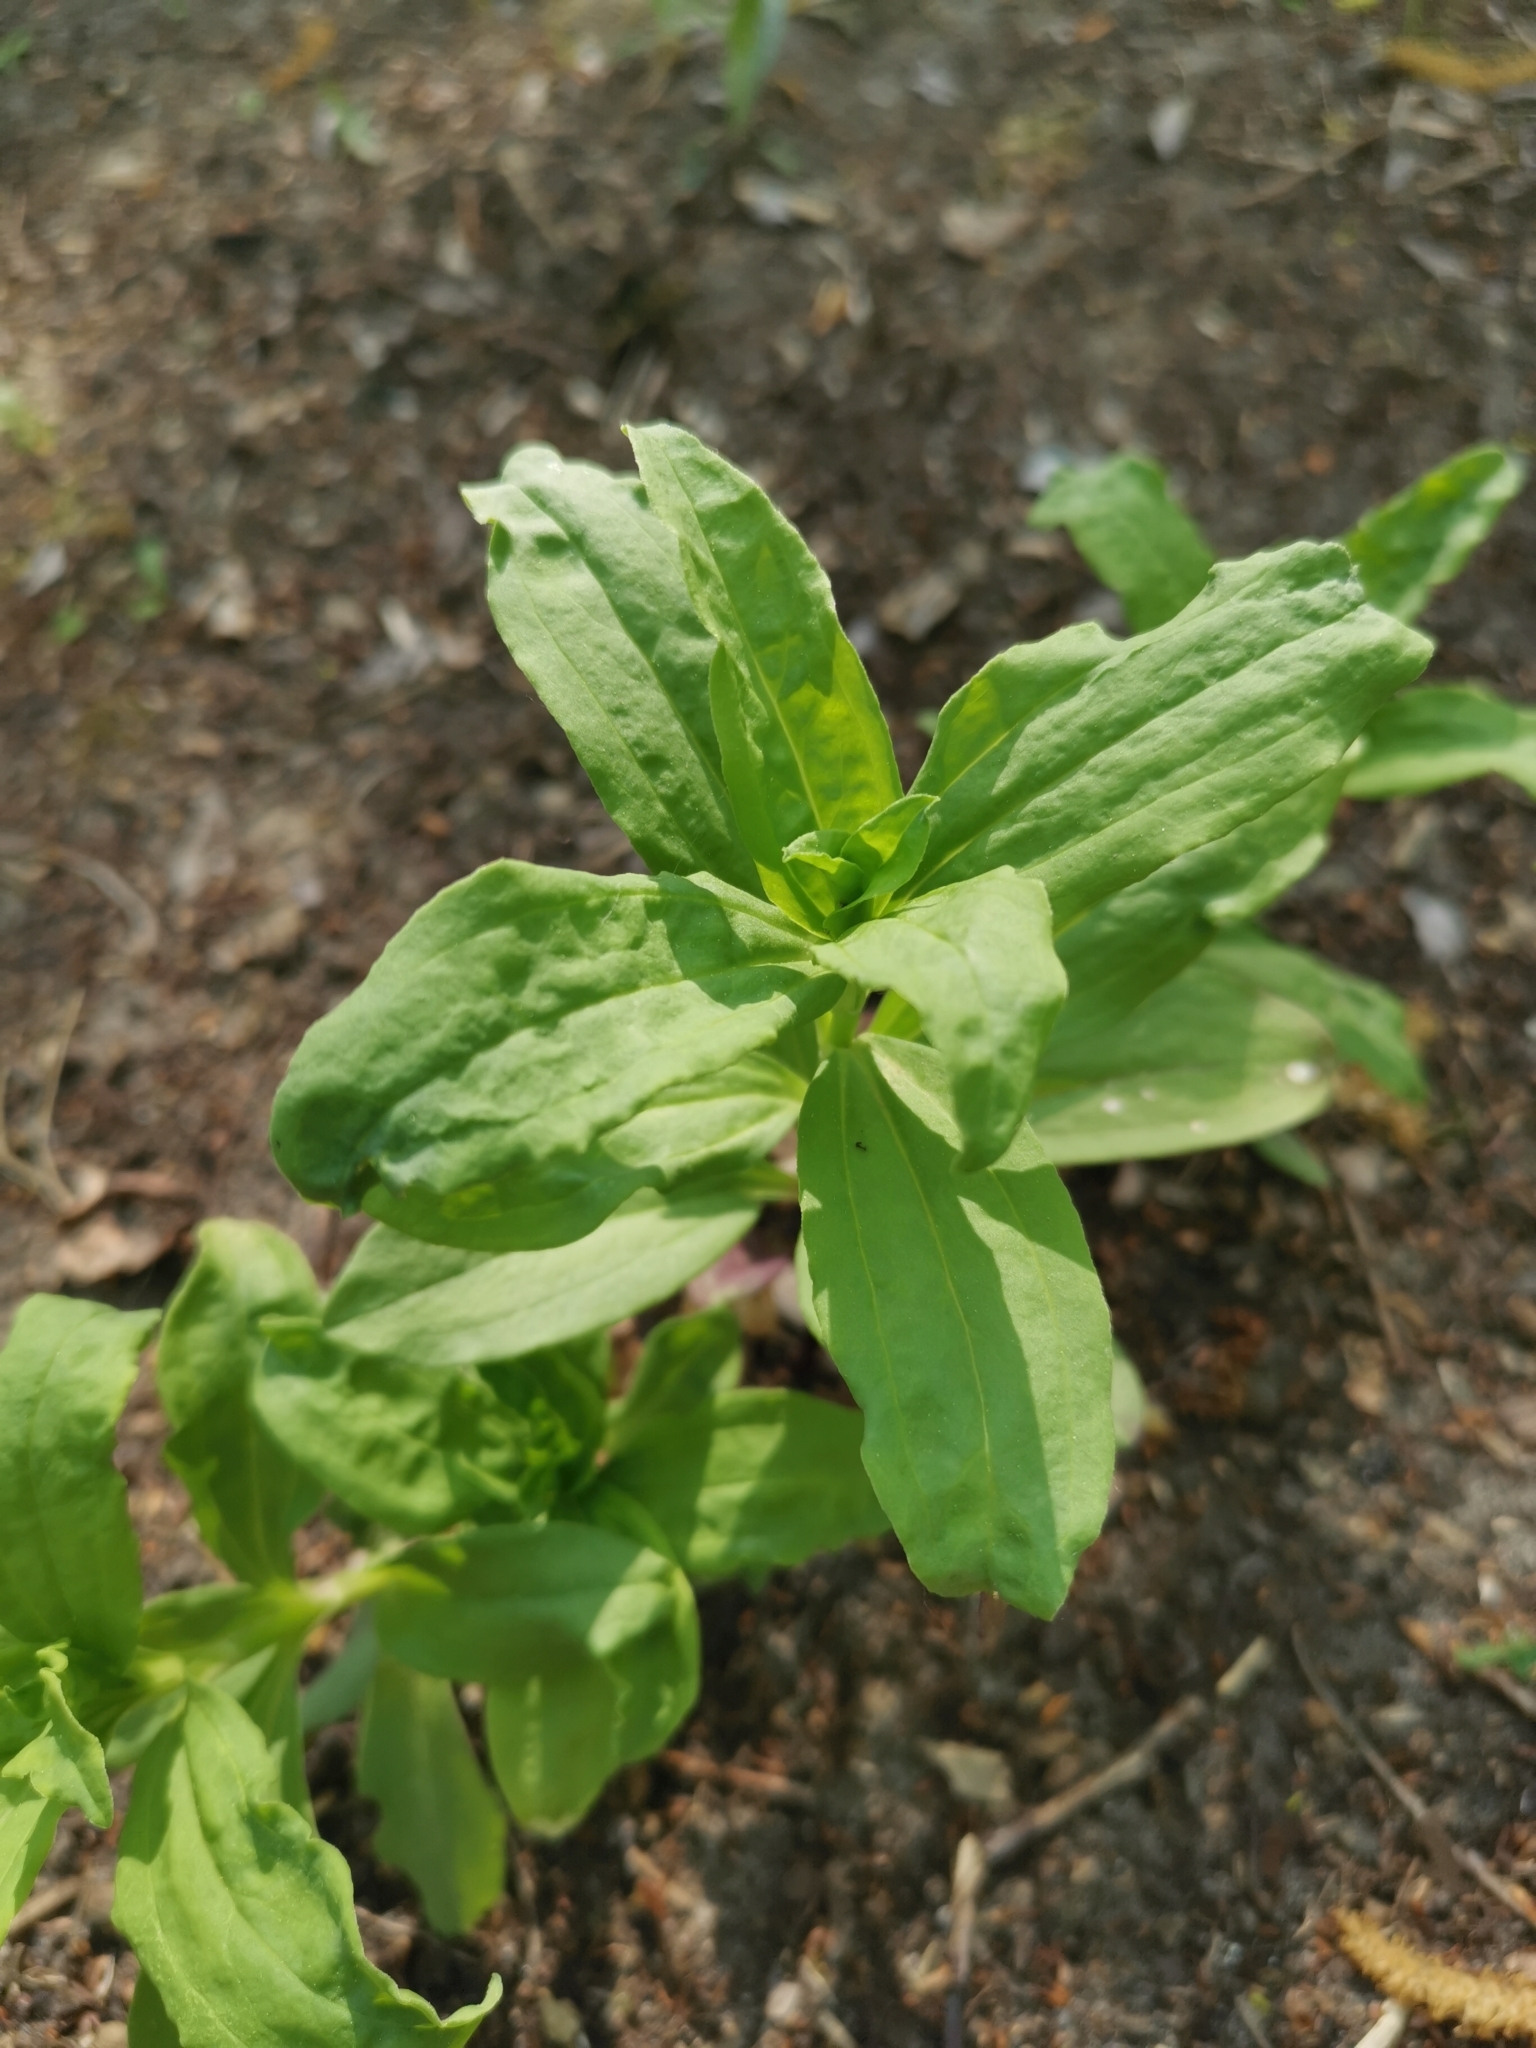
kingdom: Plantae
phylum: Tracheophyta
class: Magnoliopsida
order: Caryophyllales
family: Caryophyllaceae
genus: Saponaria
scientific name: Saponaria officinalis
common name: Soapwort
